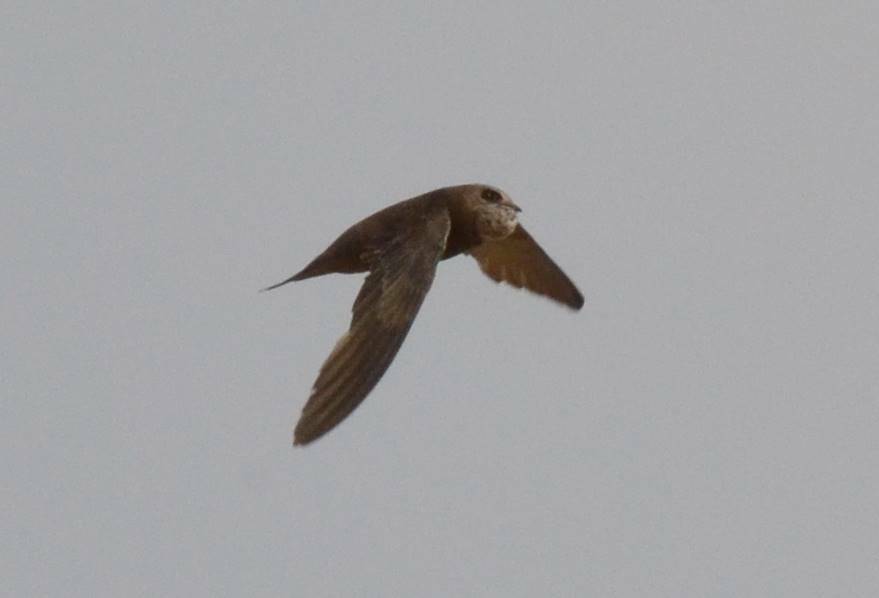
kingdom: Animalia
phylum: Chordata
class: Aves
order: Apodiformes
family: Apodidae
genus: Apus
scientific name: Apus pallidus
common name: Pallid swift
